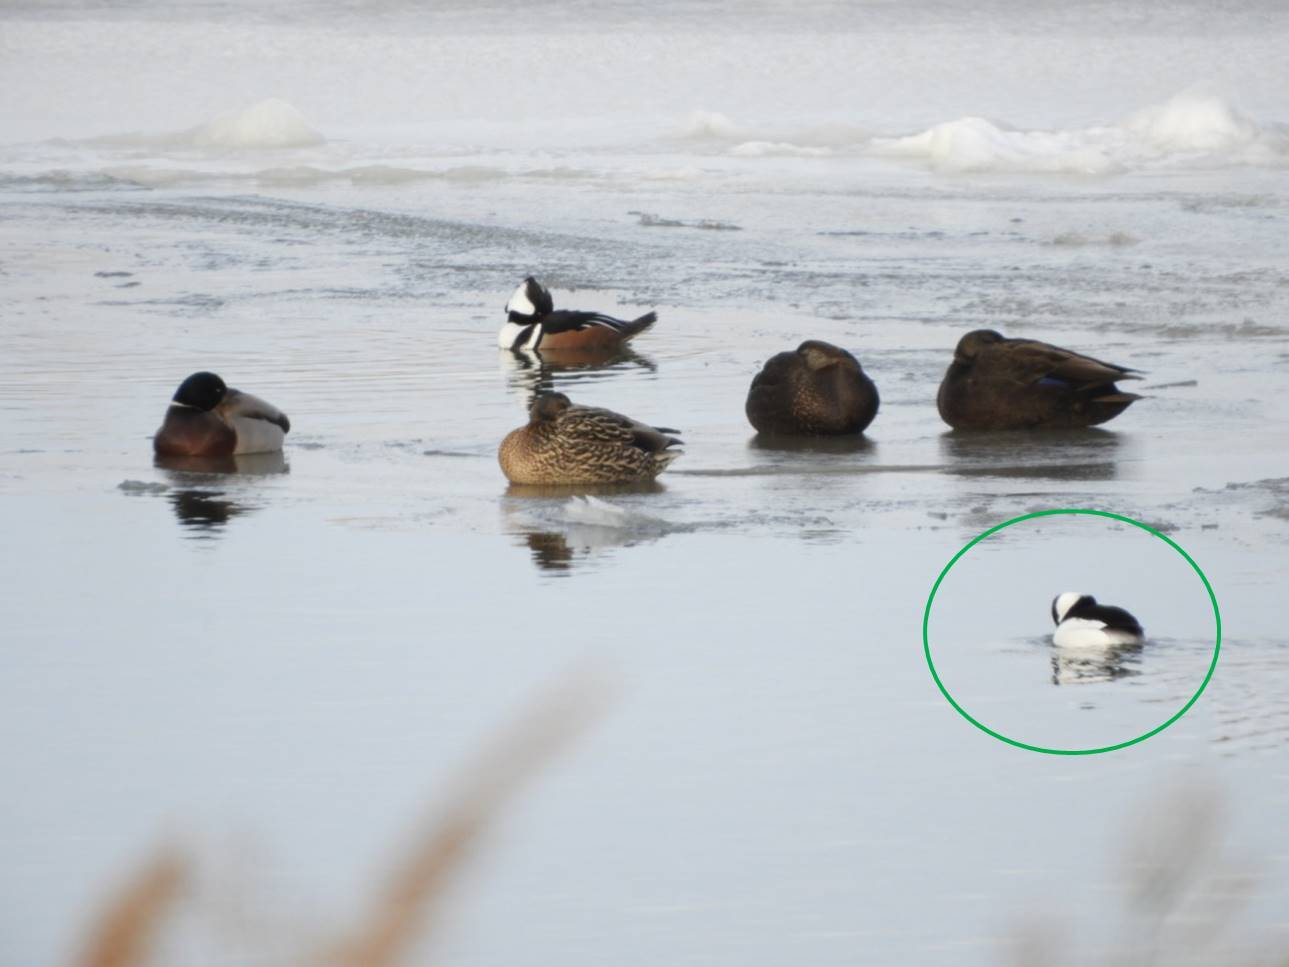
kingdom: Animalia
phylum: Chordata
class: Aves
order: Anseriformes
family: Anatidae
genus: Bucephala
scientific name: Bucephala albeola
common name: Bufflehead
